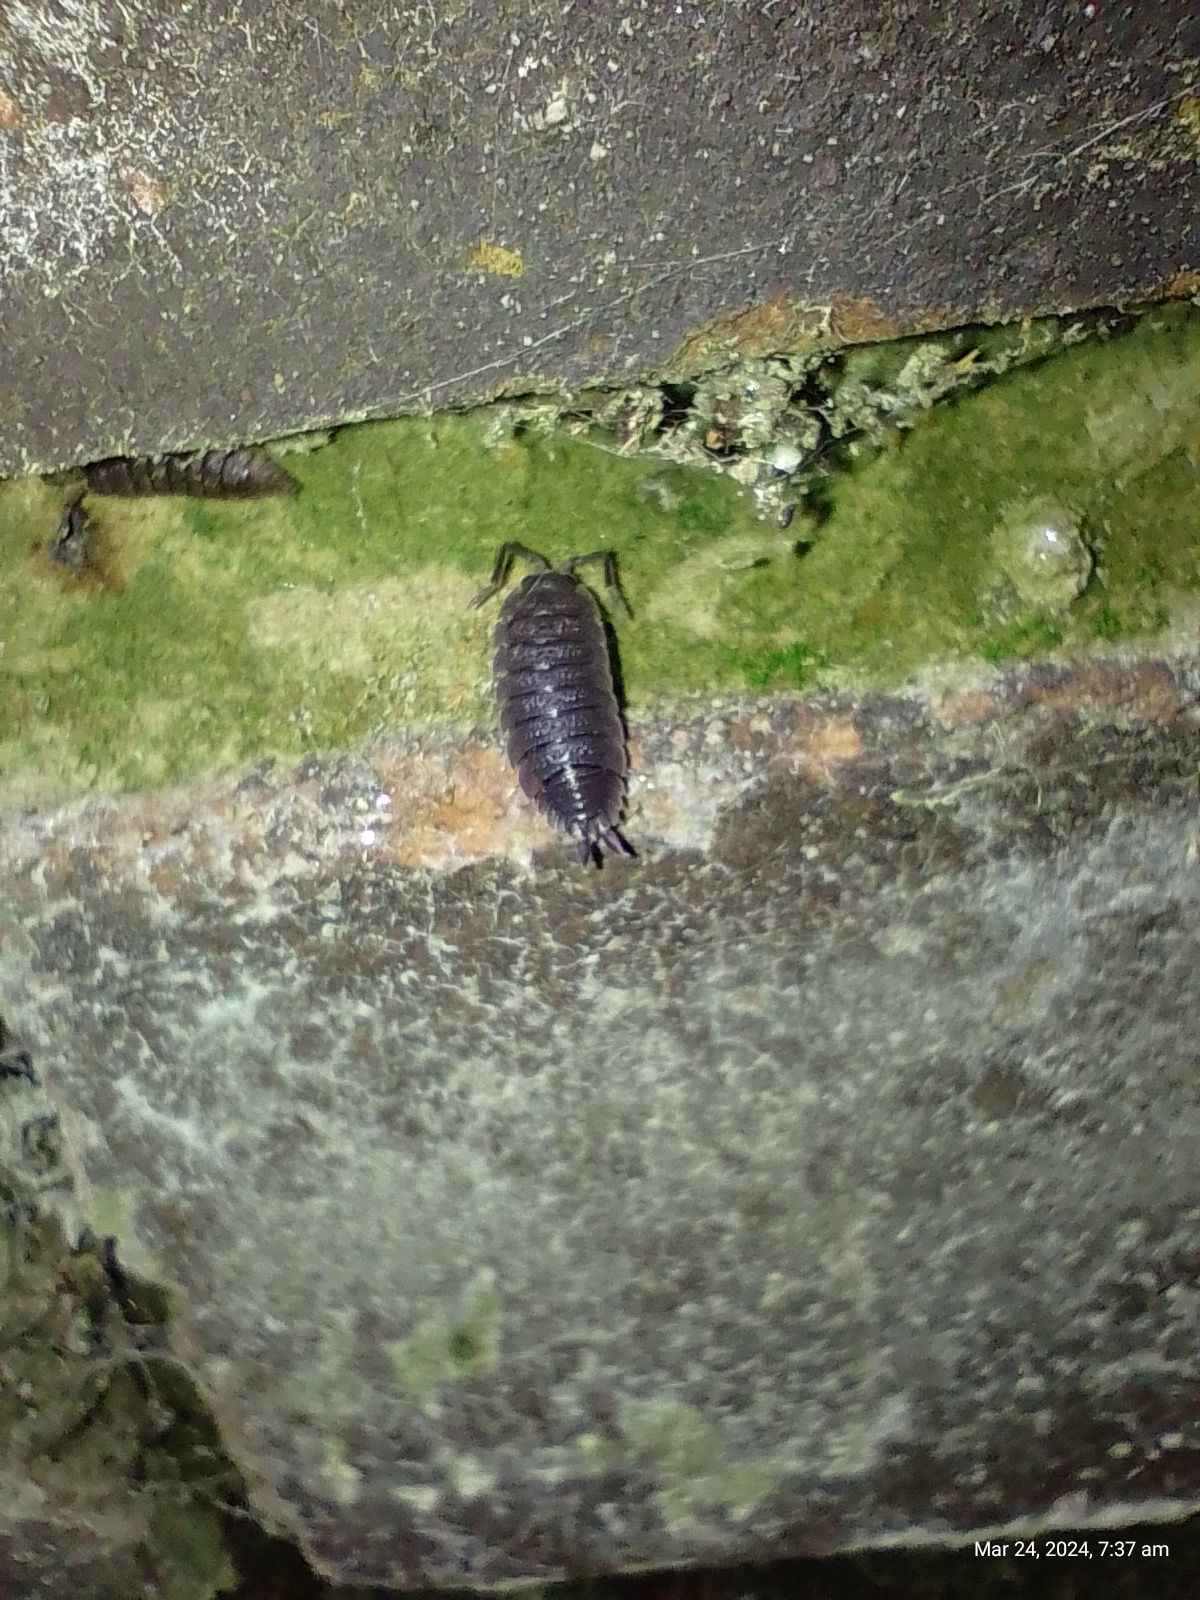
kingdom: Animalia
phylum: Arthropoda
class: Malacostraca
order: Isopoda
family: Porcellionidae
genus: Porcellio
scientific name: Porcellio scaber
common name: Common rough woodlouse
